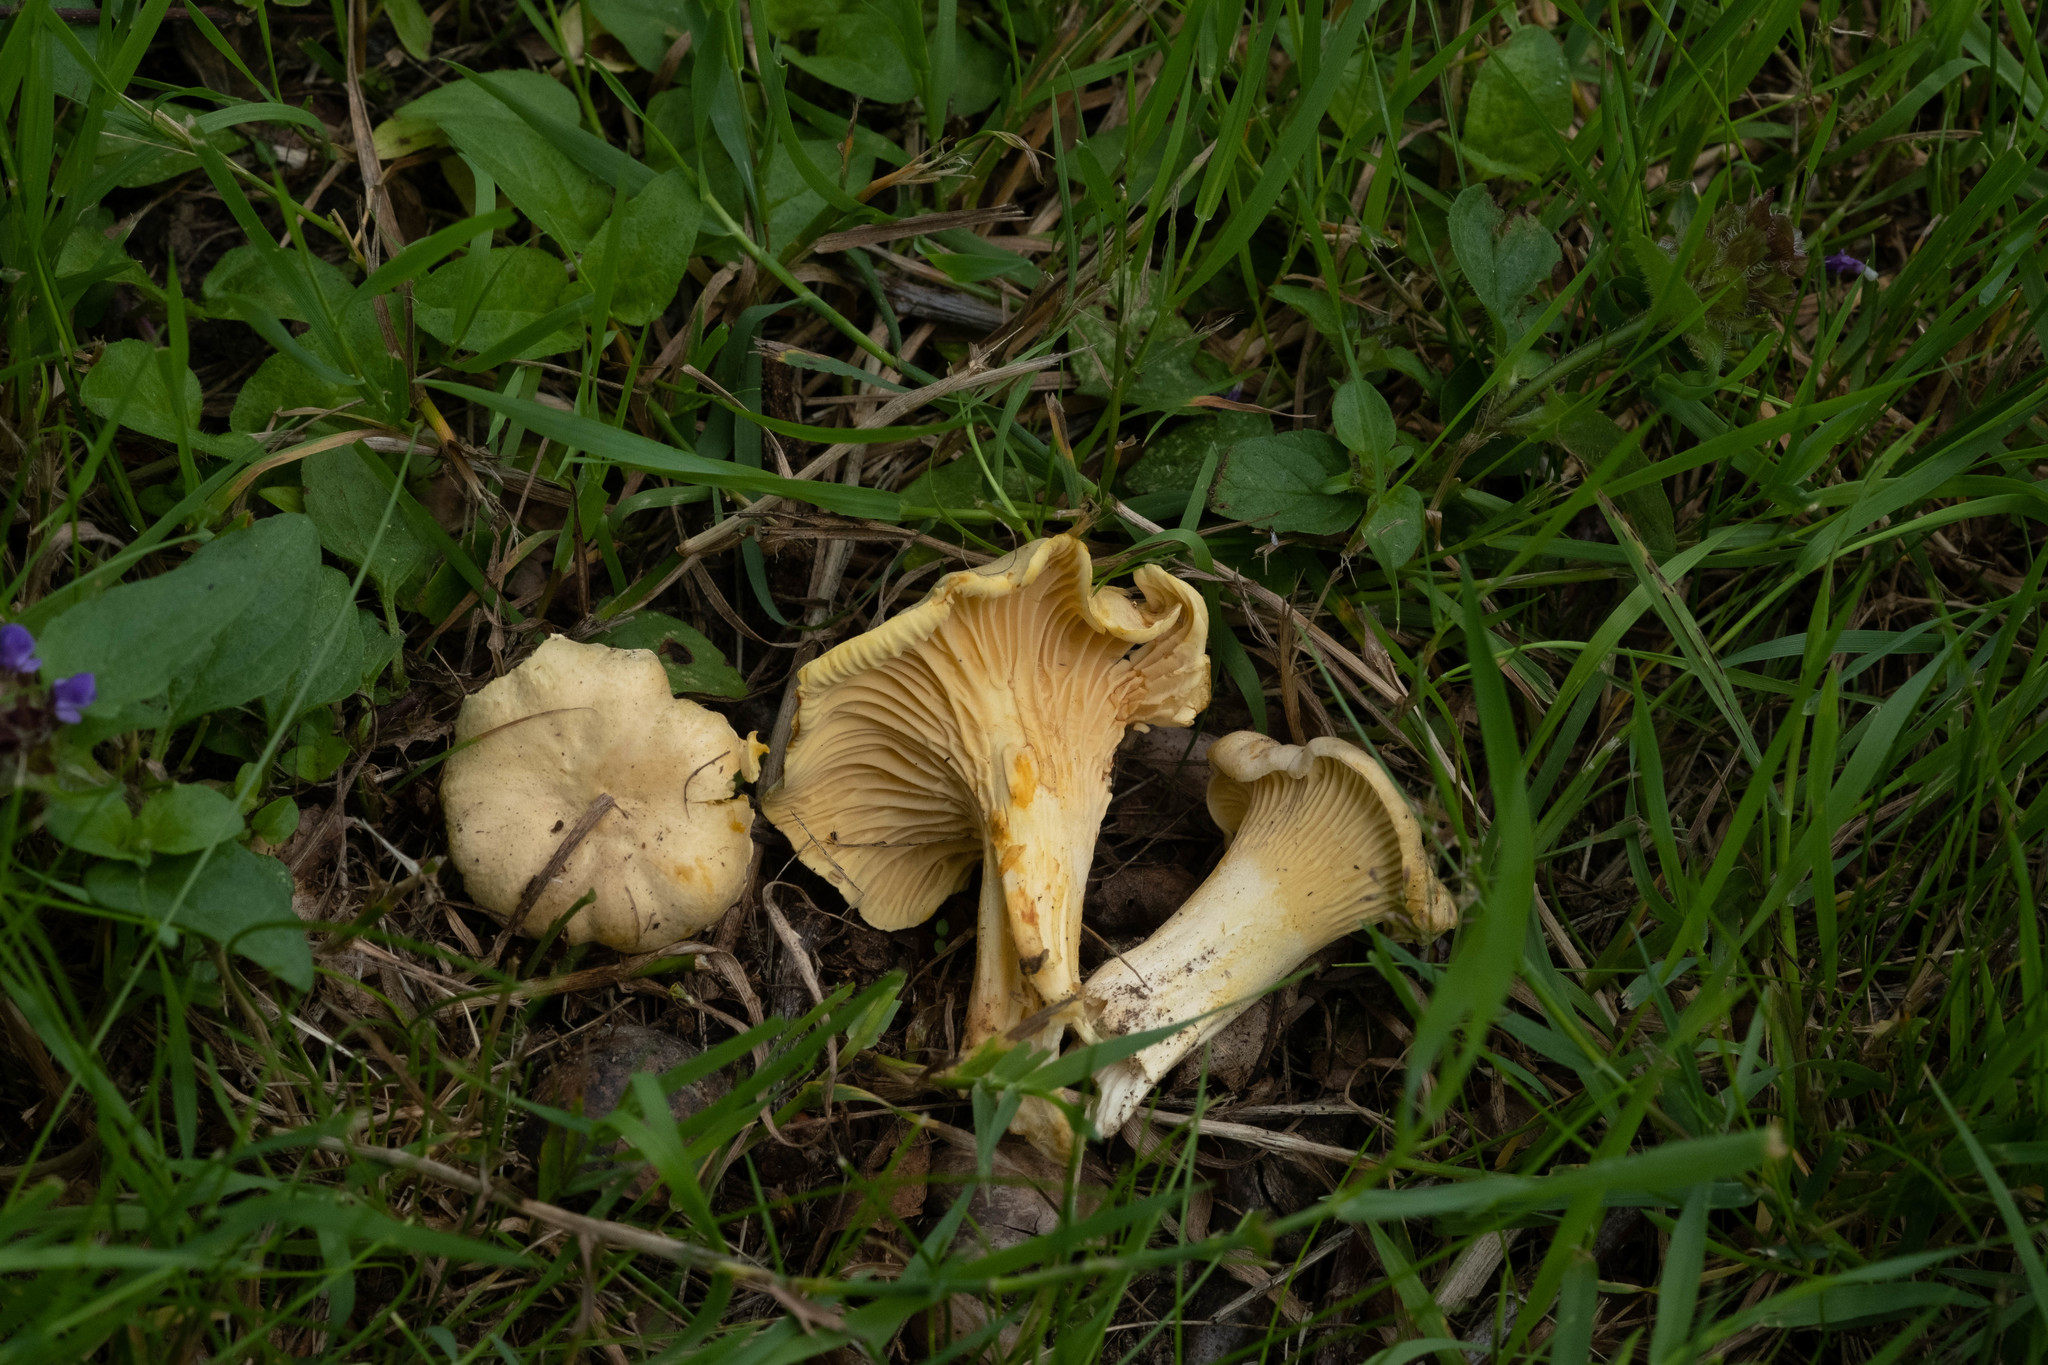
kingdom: Fungi
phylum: Basidiomycota
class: Agaricomycetes
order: Cantharellales
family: Hydnaceae
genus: Cantharellus
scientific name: Cantharellus cibarius
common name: Chanterelle
